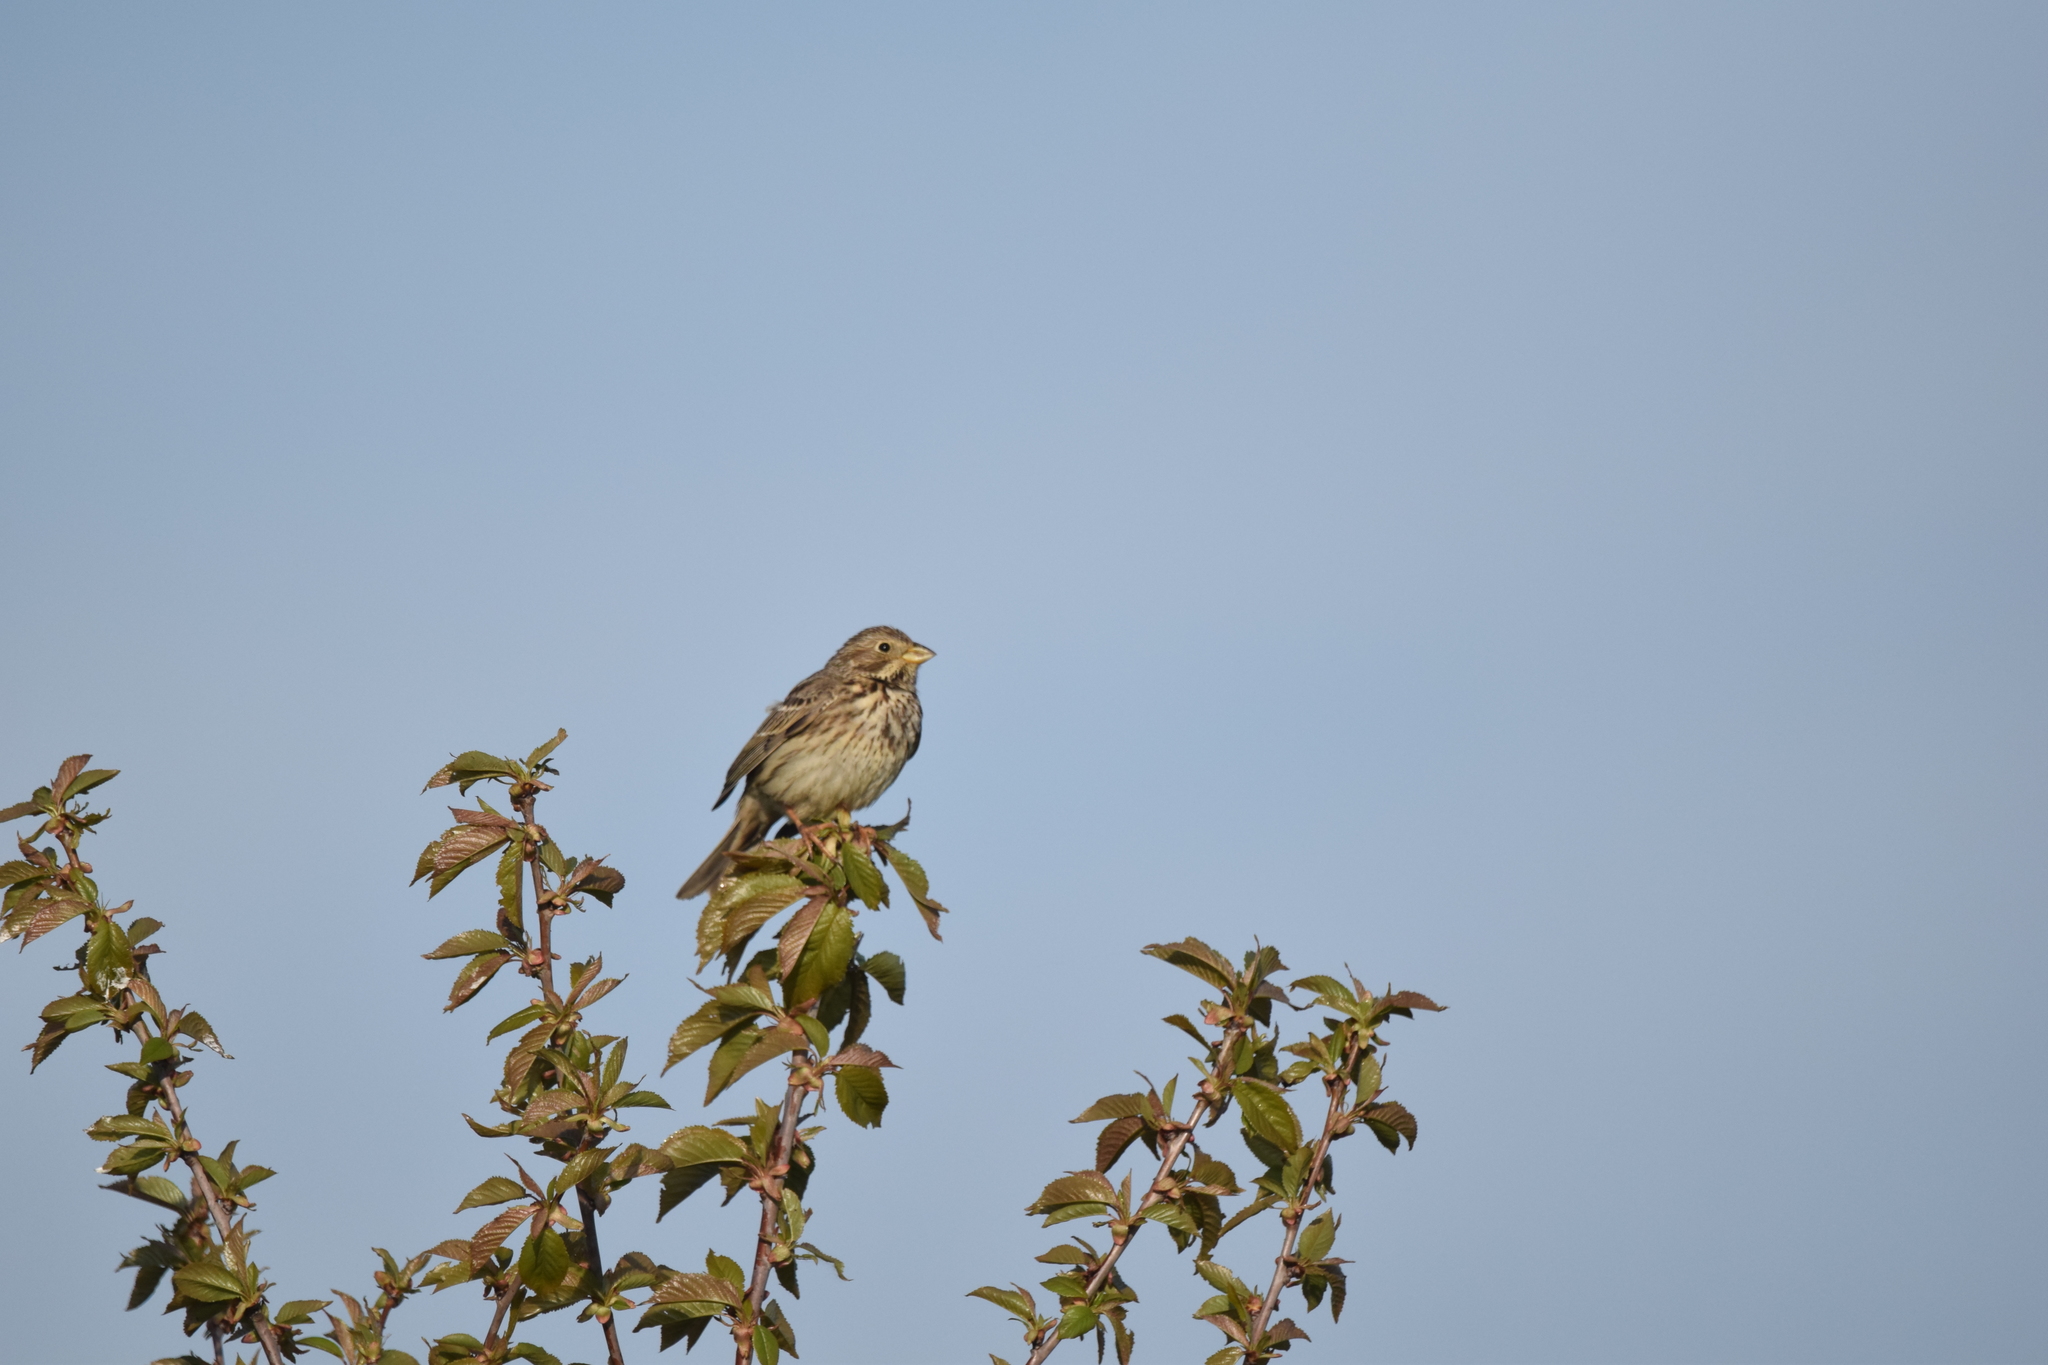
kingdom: Animalia
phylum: Chordata
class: Aves
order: Passeriformes
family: Emberizidae
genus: Emberiza
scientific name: Emberiza calandra
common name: Corn bunting
